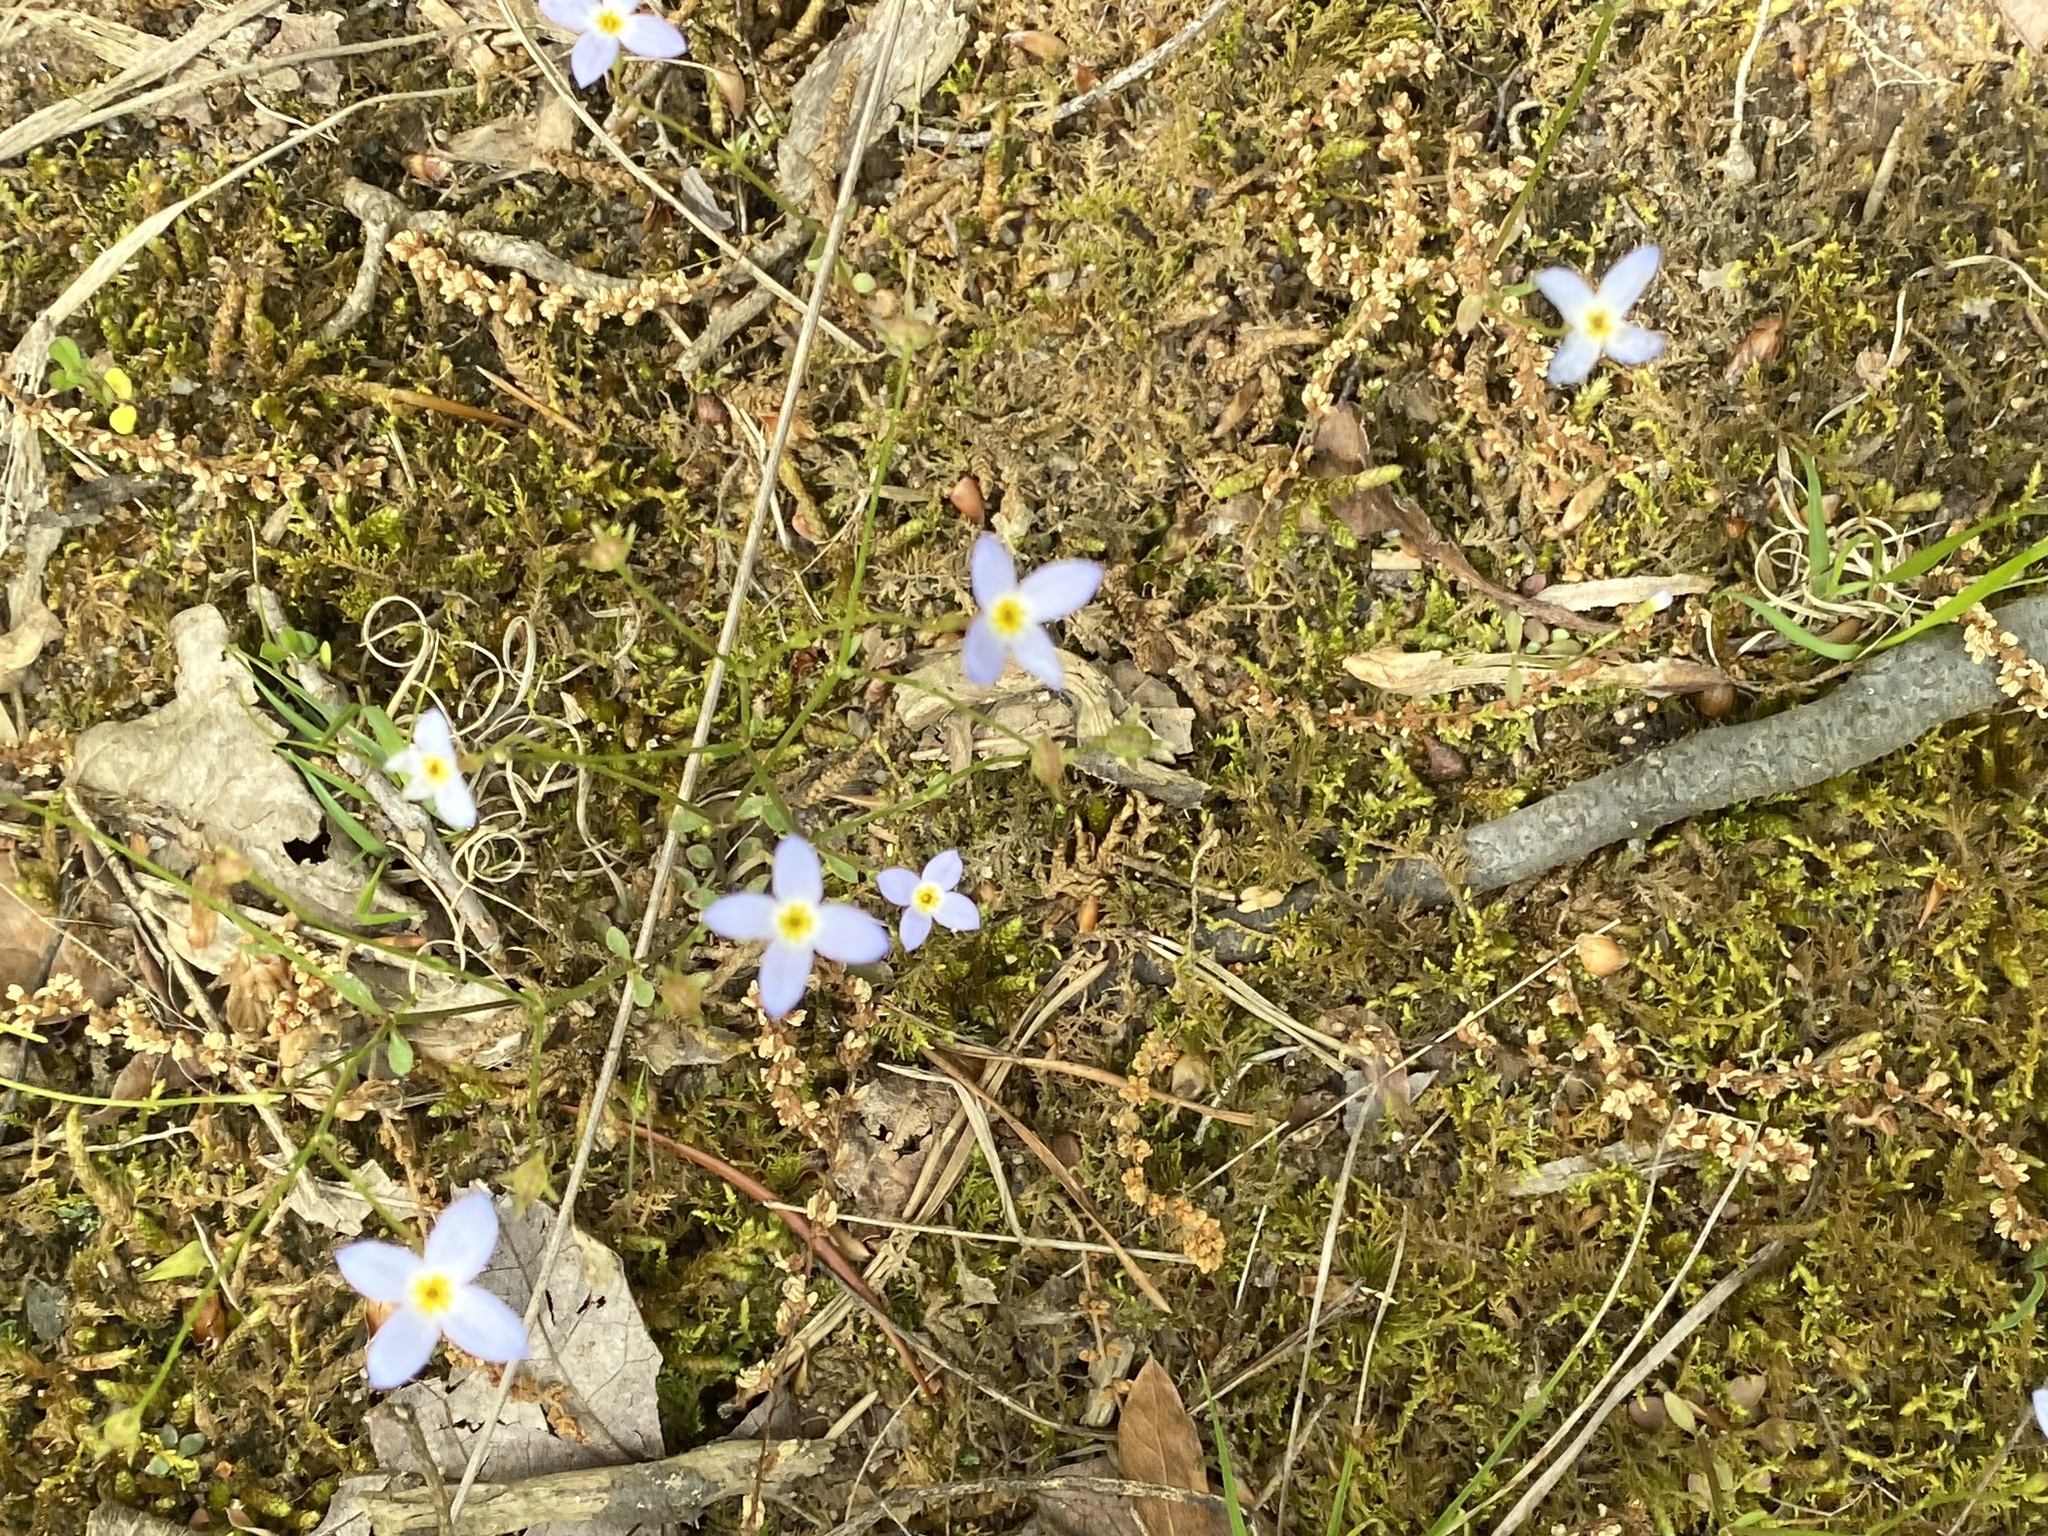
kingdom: Plantae
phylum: Tracheophyta
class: Magnoliopsida
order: Gentianales
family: Rubiaceae
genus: Houstonia
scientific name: Houstonia caerulea
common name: Bluets
